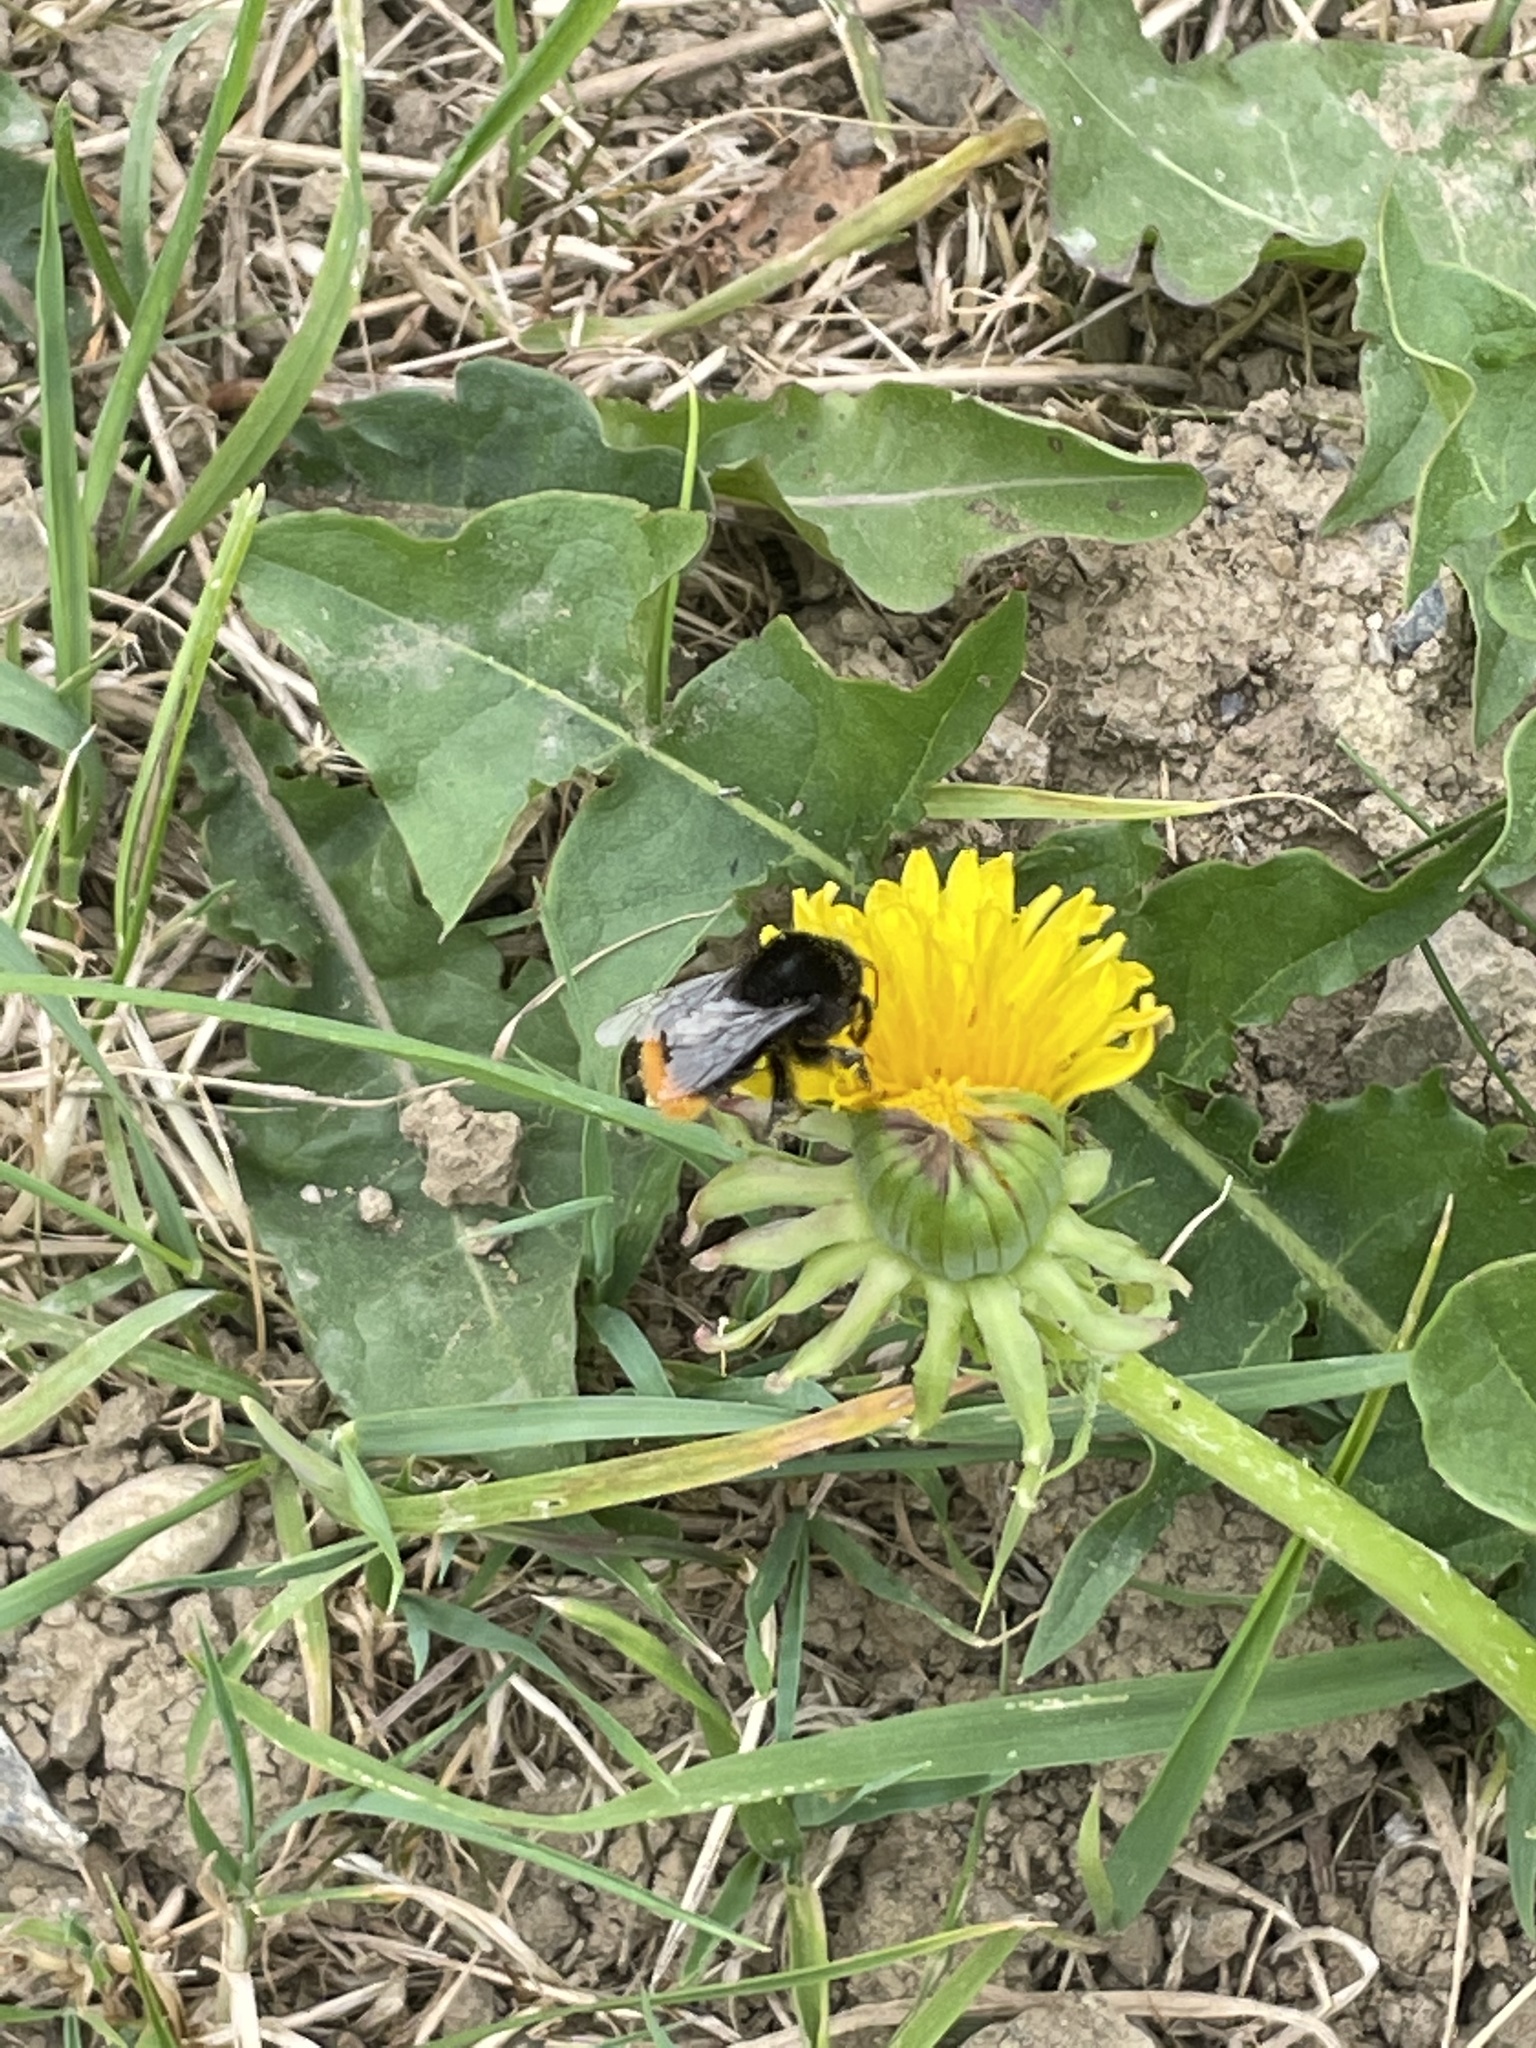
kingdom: Animalia
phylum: Arthropoda
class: Insecta
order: Hymenoptera
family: Apidae
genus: Bombus
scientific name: Bombus lapidarius
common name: Large red-tailed humble-bee
